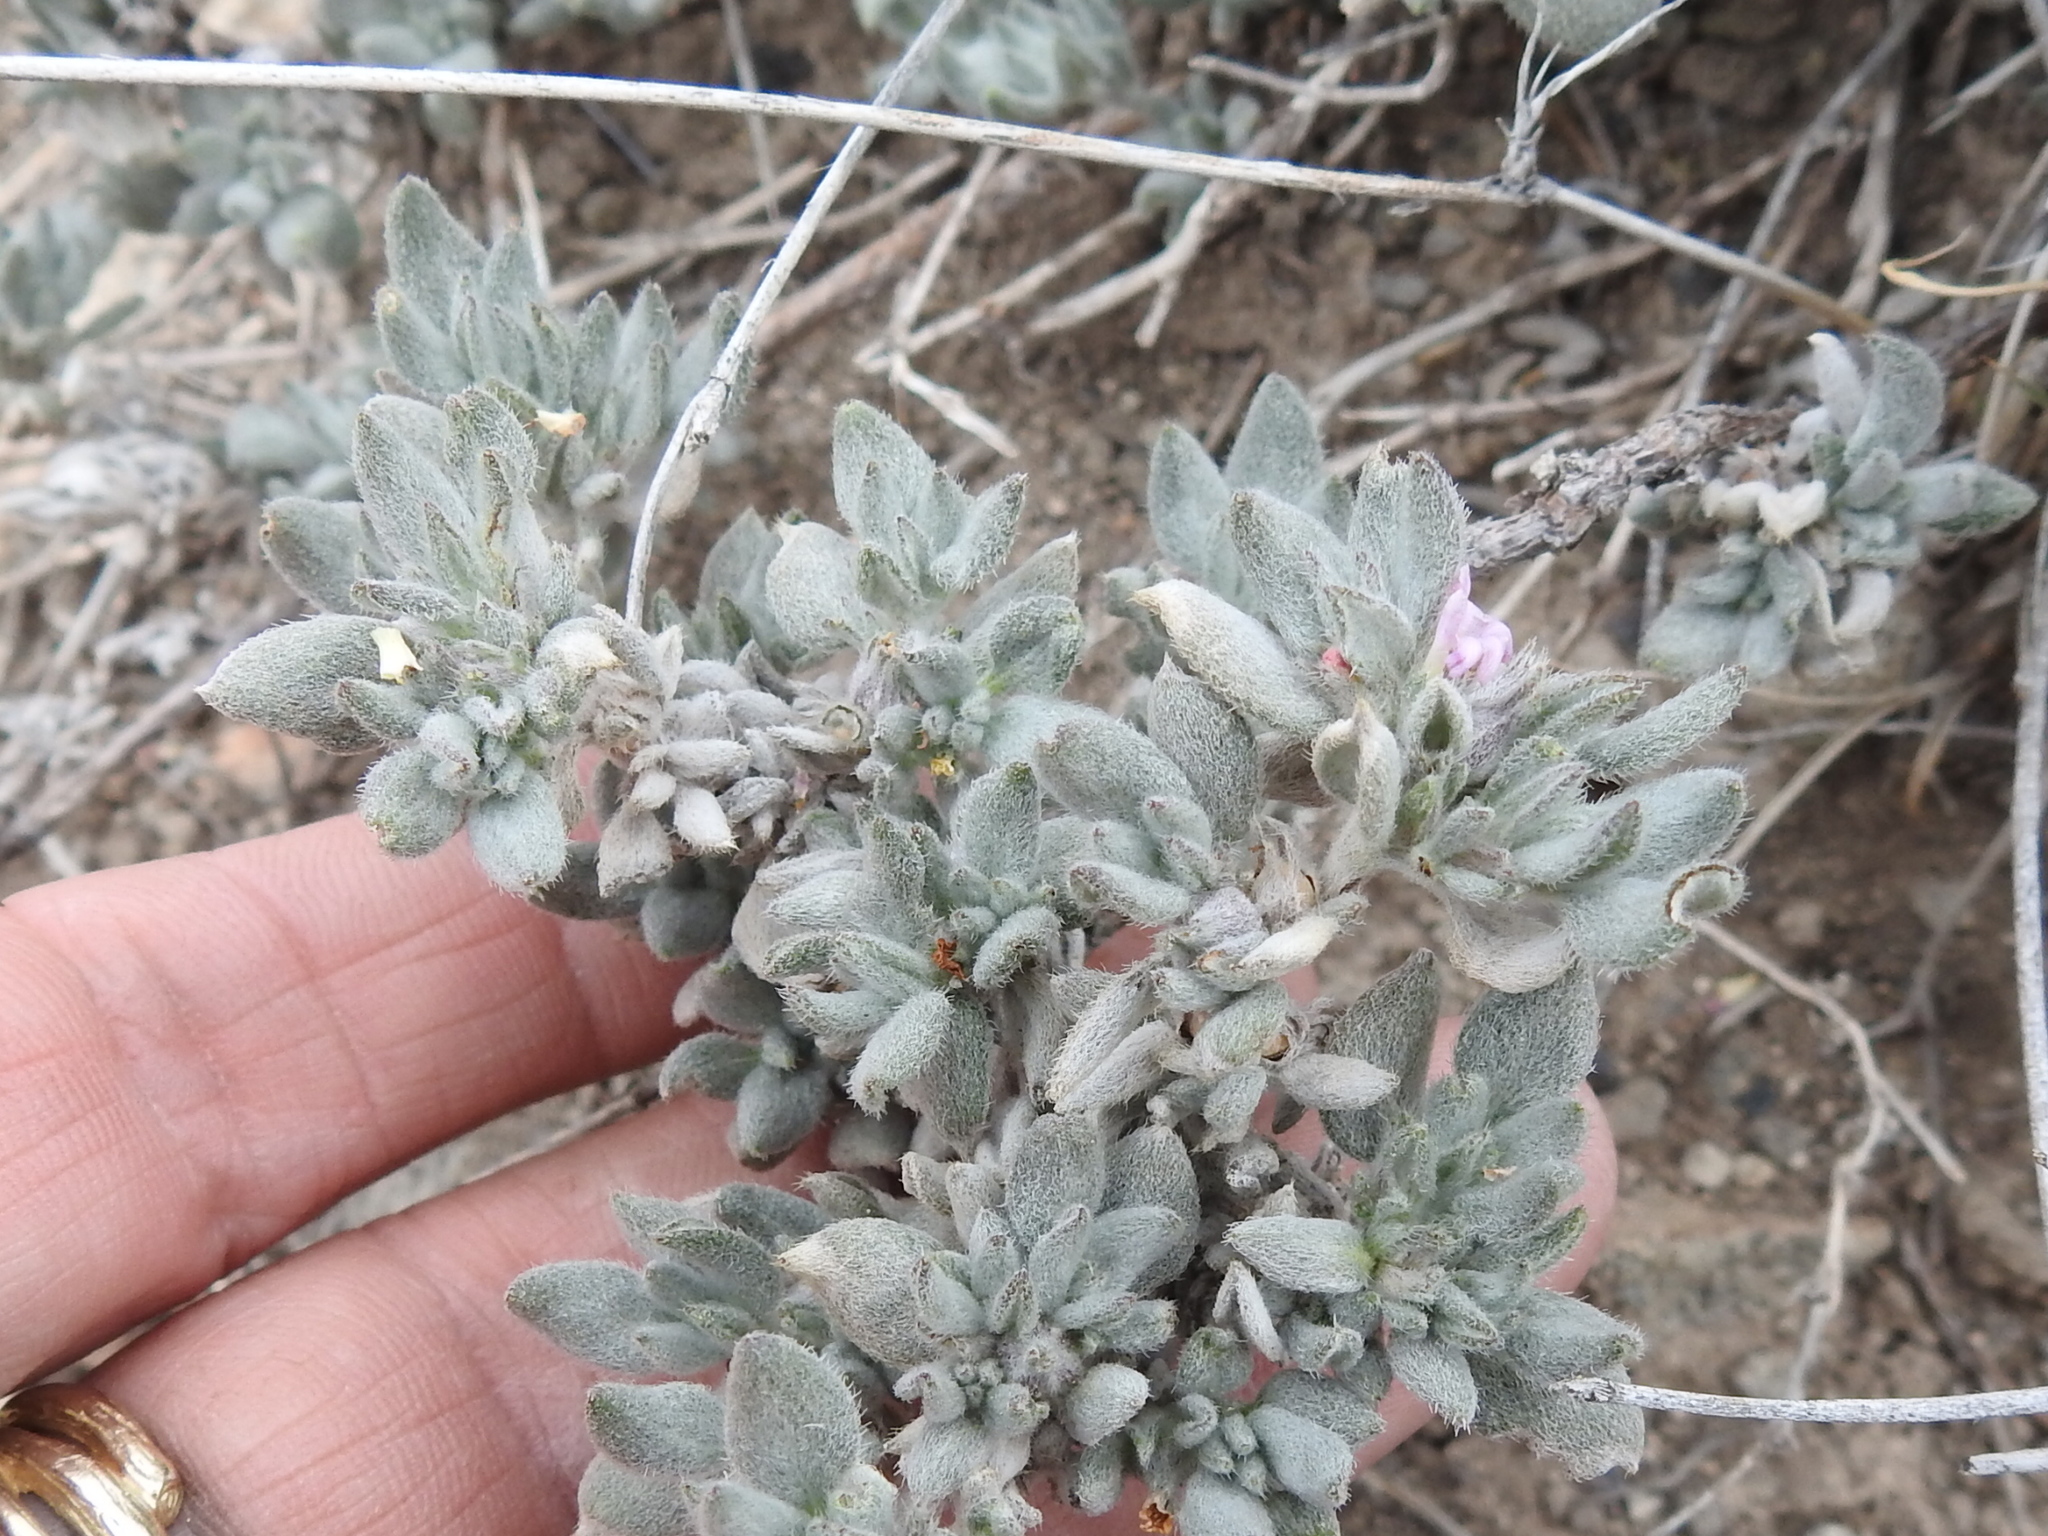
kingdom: Plantae
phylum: Tracheophyta
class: Magnoliopsida
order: Boraginales
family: Ehretiaceae
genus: Tiquilia
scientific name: Tiquilia canescens
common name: Hairy tiquilia
